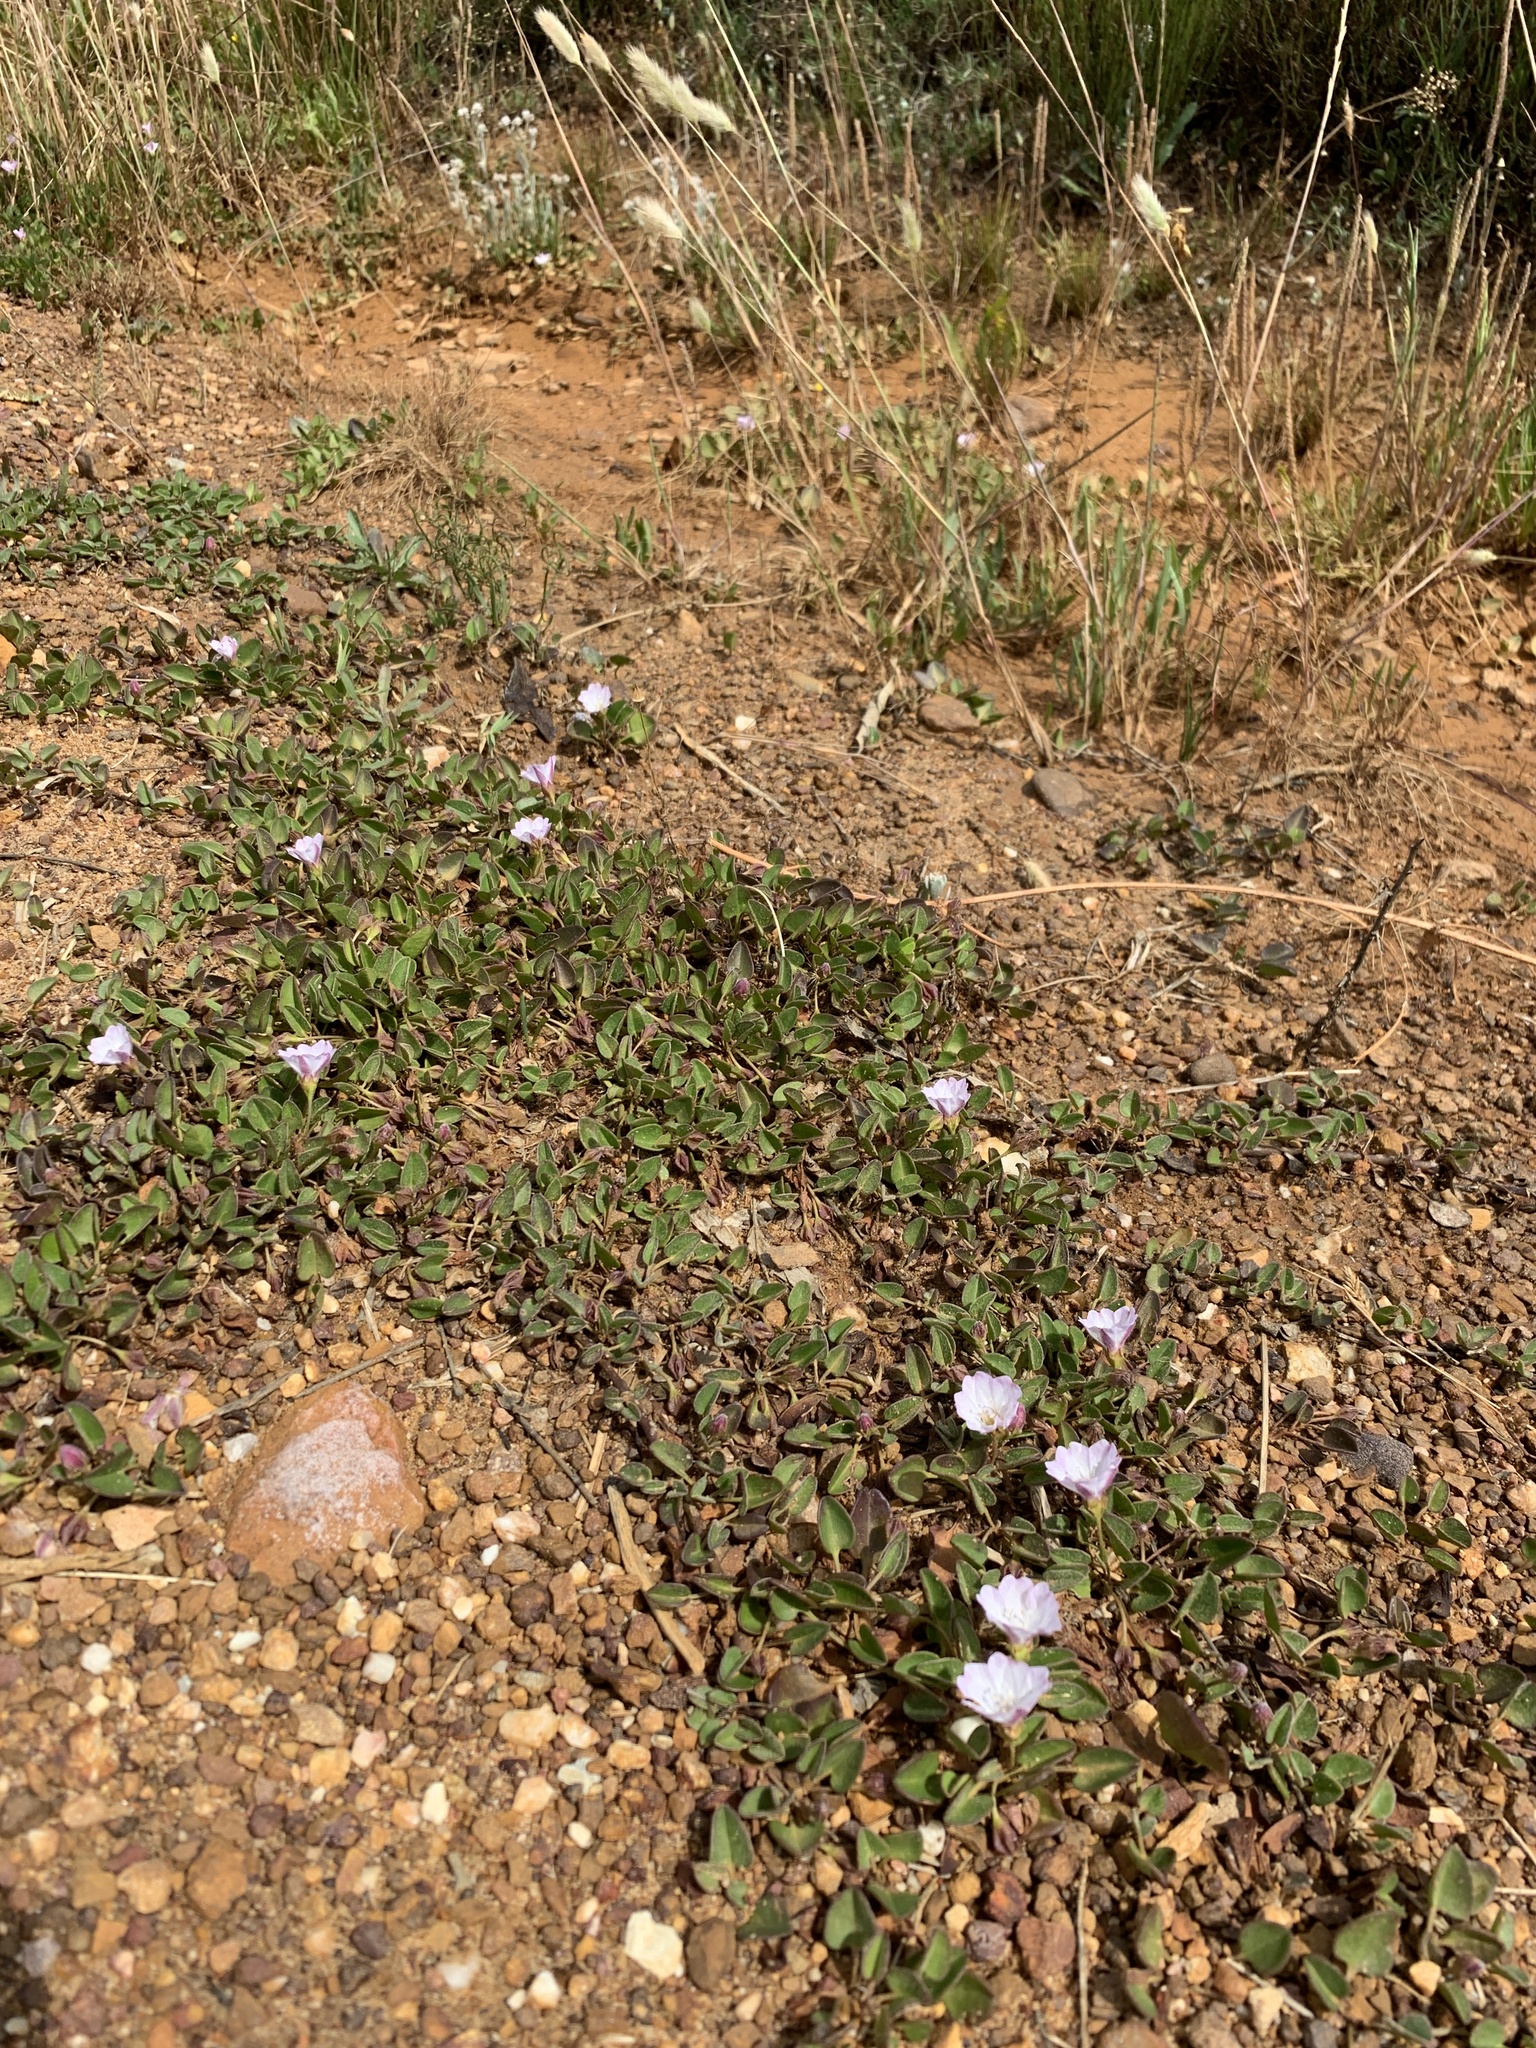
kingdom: Plantae
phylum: Tracheophyta
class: Magnoliopsida
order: Solanales
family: Convolvulaceae
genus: Falkia
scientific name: Falkia repens
